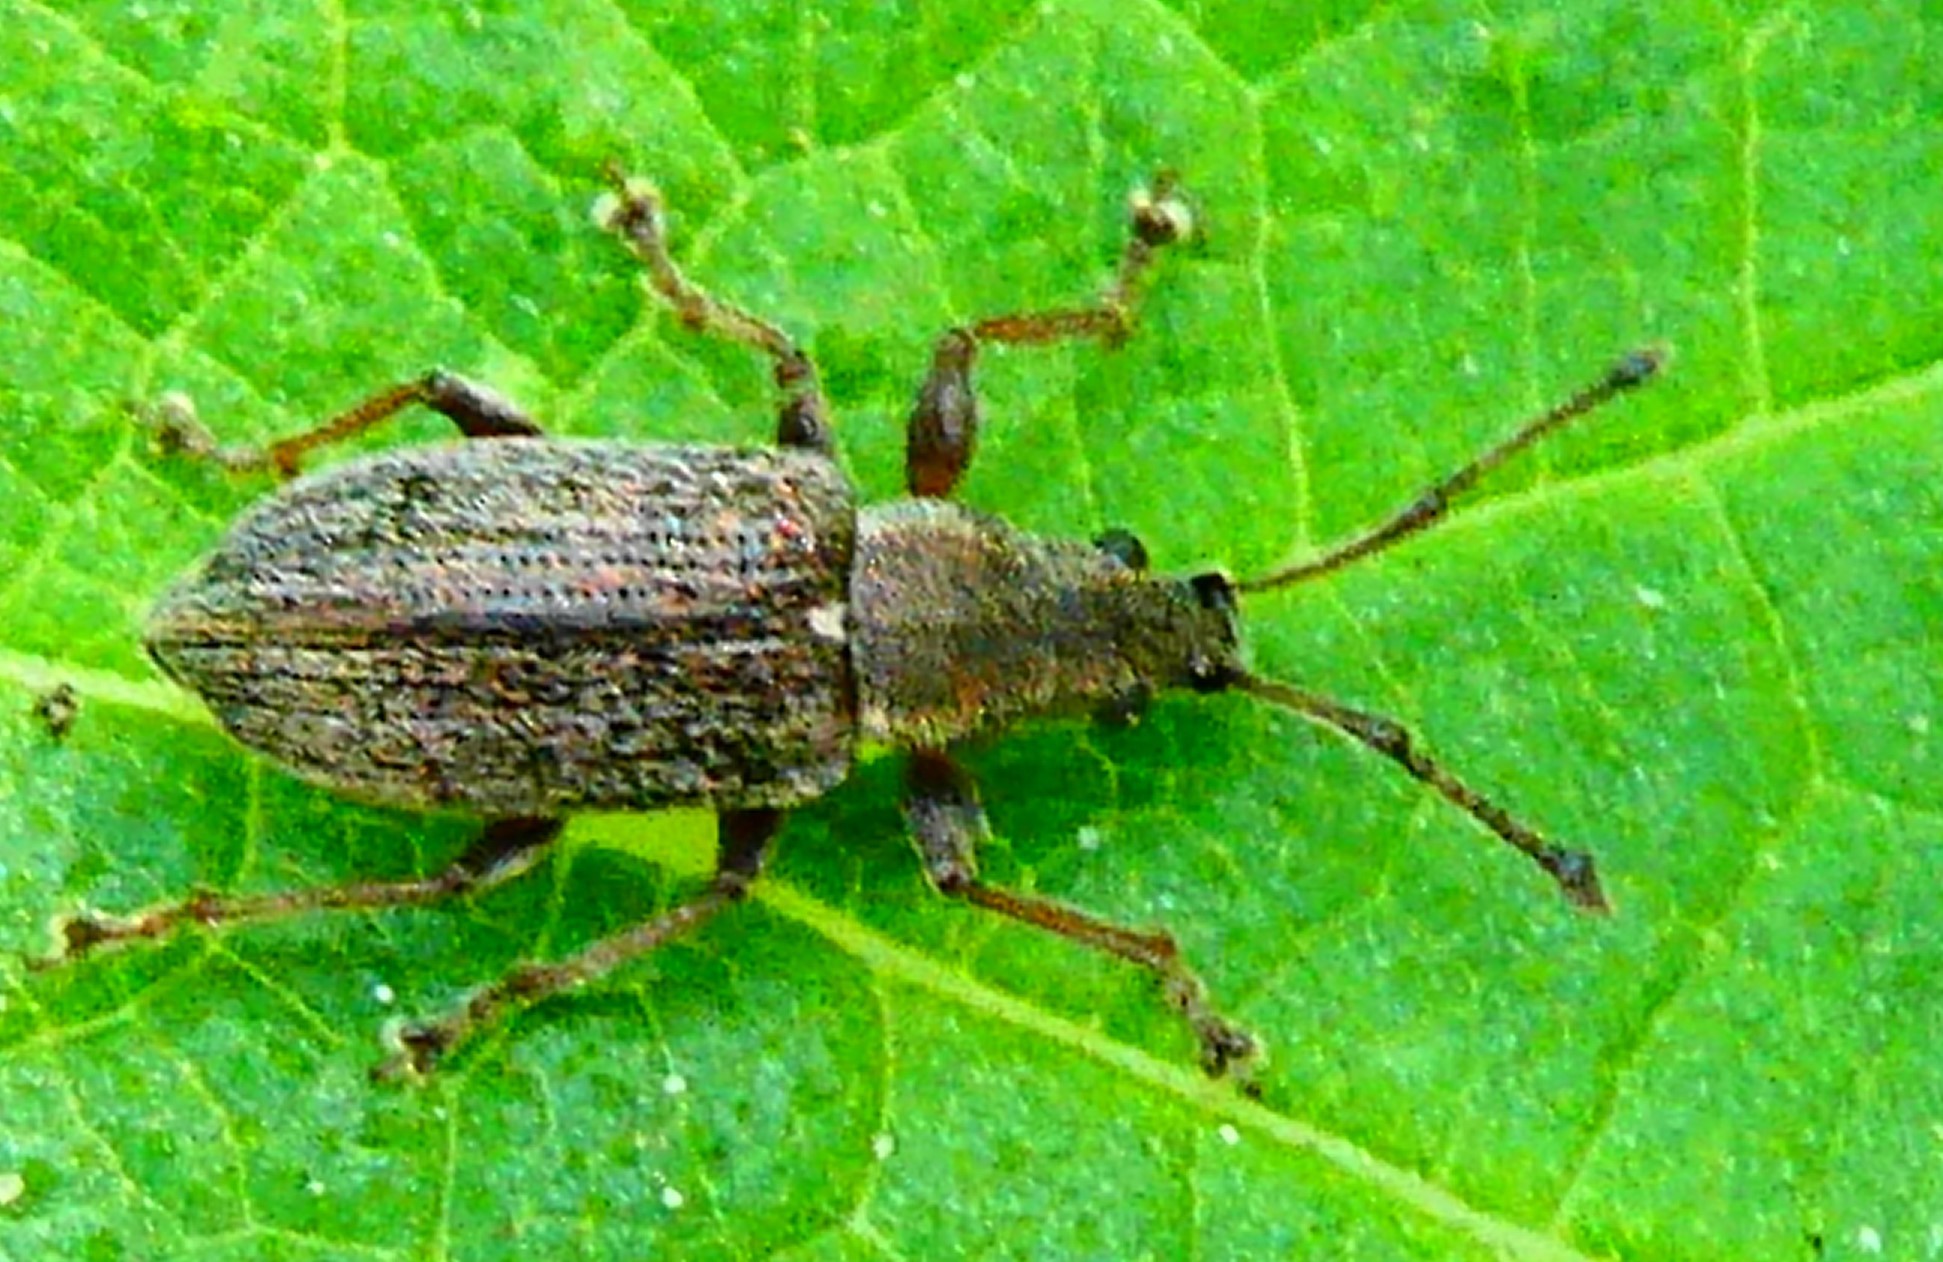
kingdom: Animalia
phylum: Arthropoda
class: Insecta
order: Coleoptera
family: Curculionidae
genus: Phyllobius
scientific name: Phyllobius pyri
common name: Common leaf weevil
